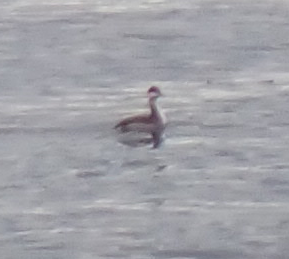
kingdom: Animalia
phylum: Chordata
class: Aves
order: Podicipediformes
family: Podicipedidae
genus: Podiceps
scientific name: Podiceps auritus
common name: Horned grebe
